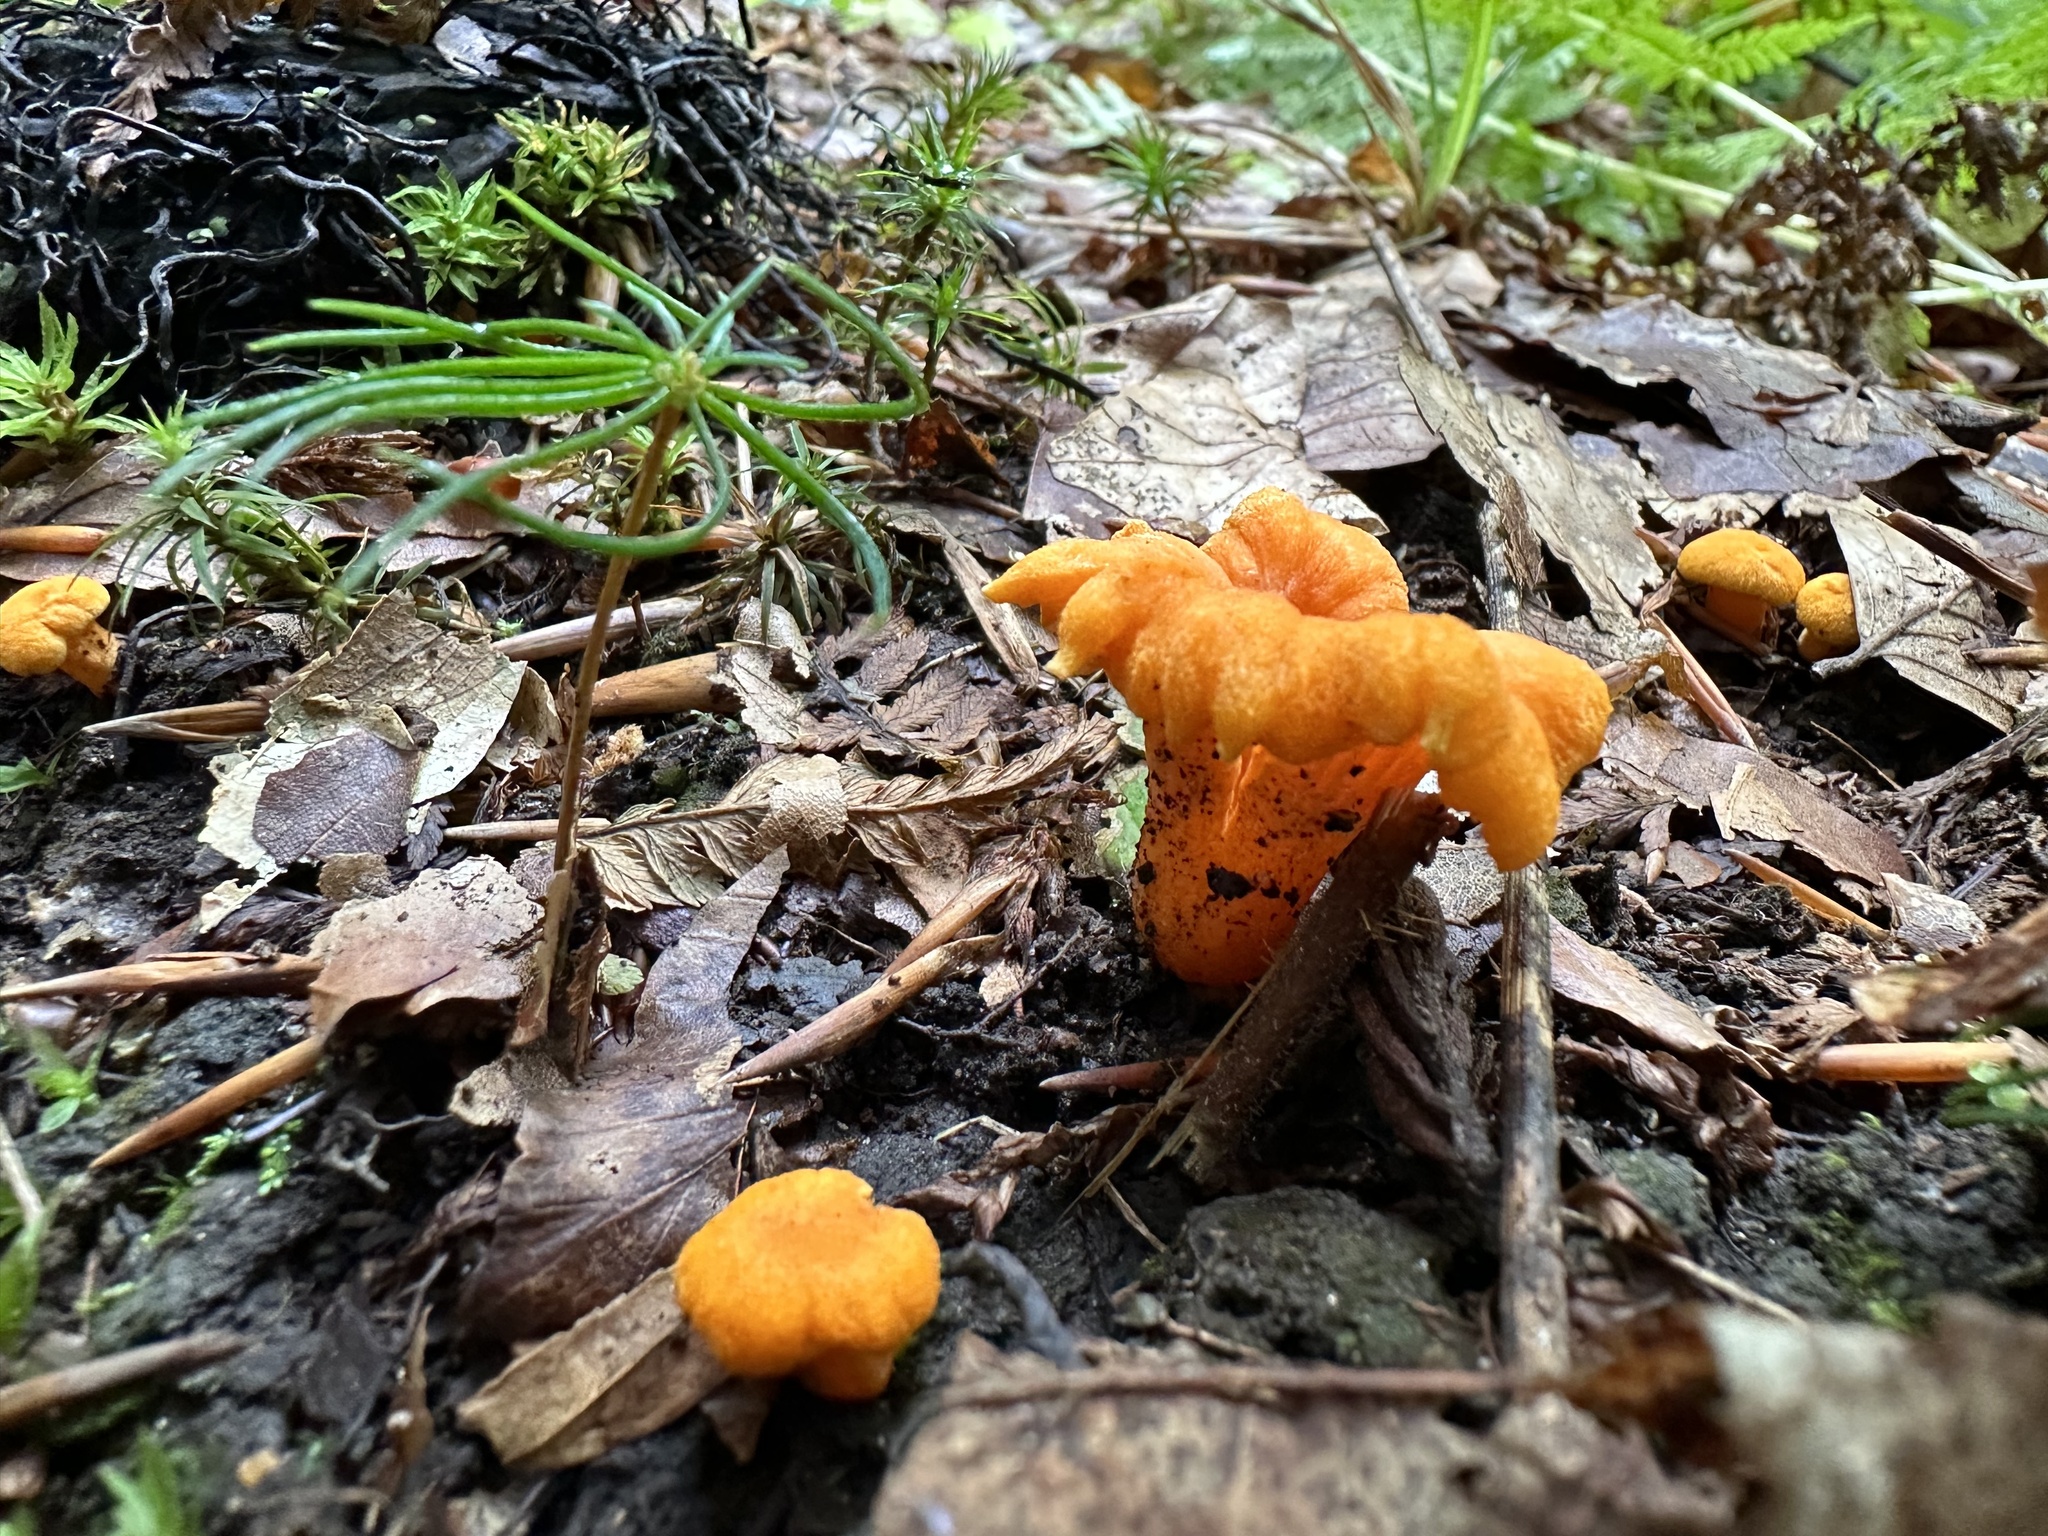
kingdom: Fungi
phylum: Basidiomycota
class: Agaricomycetes
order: Cantharellales
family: Hydnaceae
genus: Cantharellus
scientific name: Cantharellus cibarius
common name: Chanterelle
